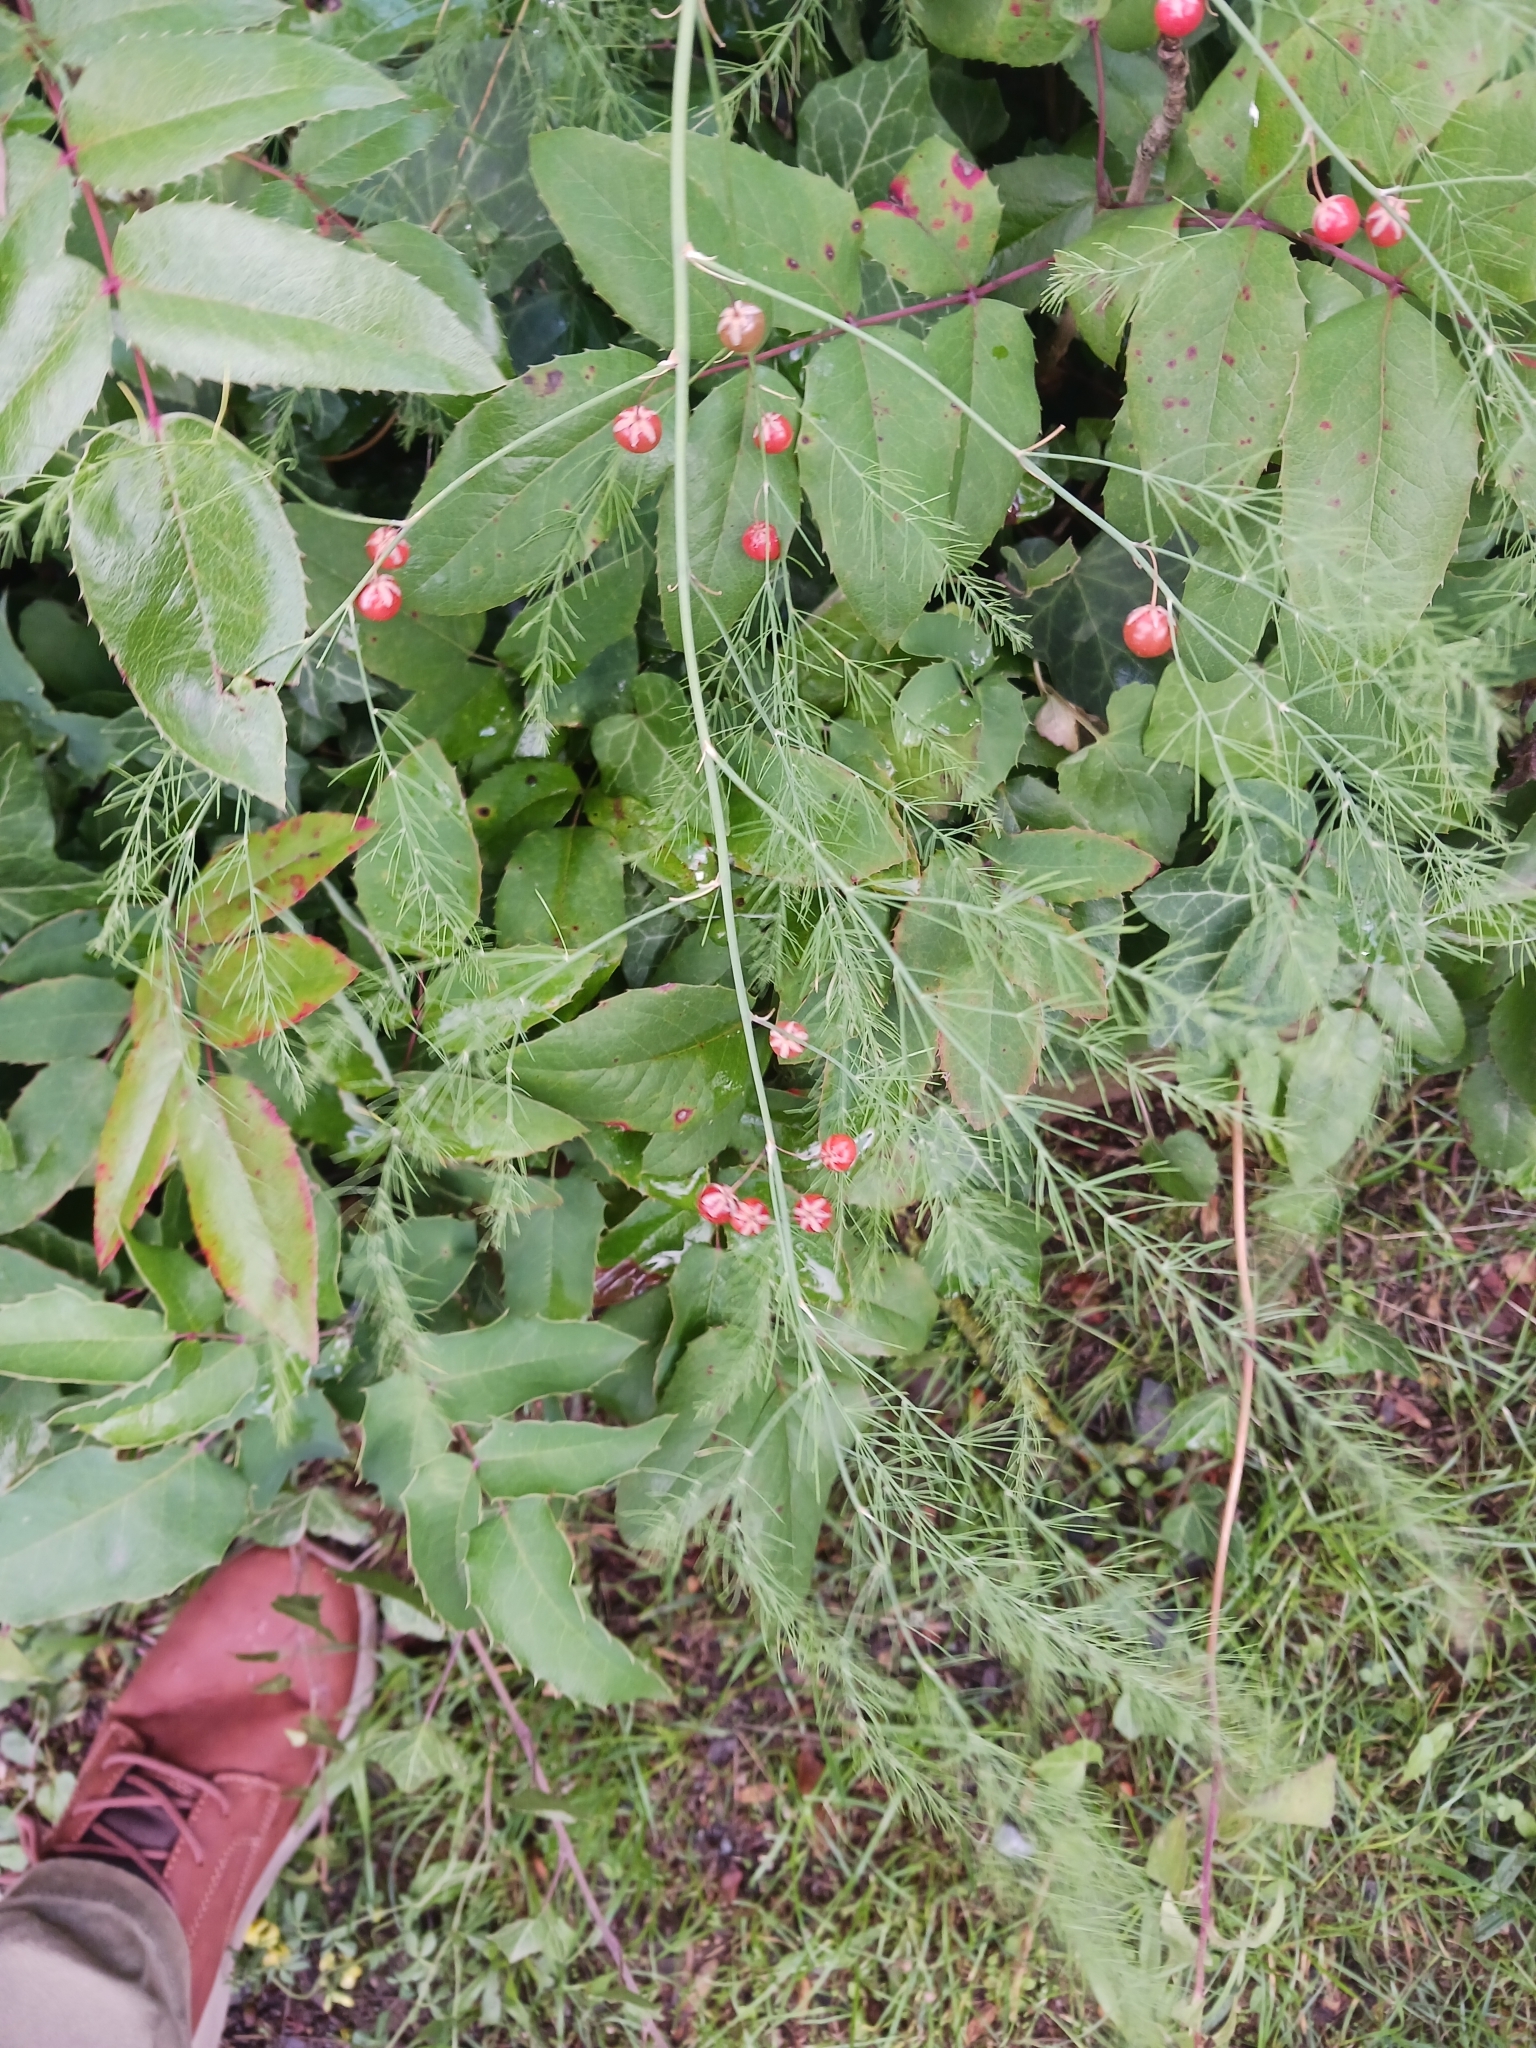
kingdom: Plantae
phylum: Tracheophyta
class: Liliopsida
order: Asparagales
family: Asparagaceae
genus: Asparagus
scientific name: Asparagus officinalis
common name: Garden asparagus
